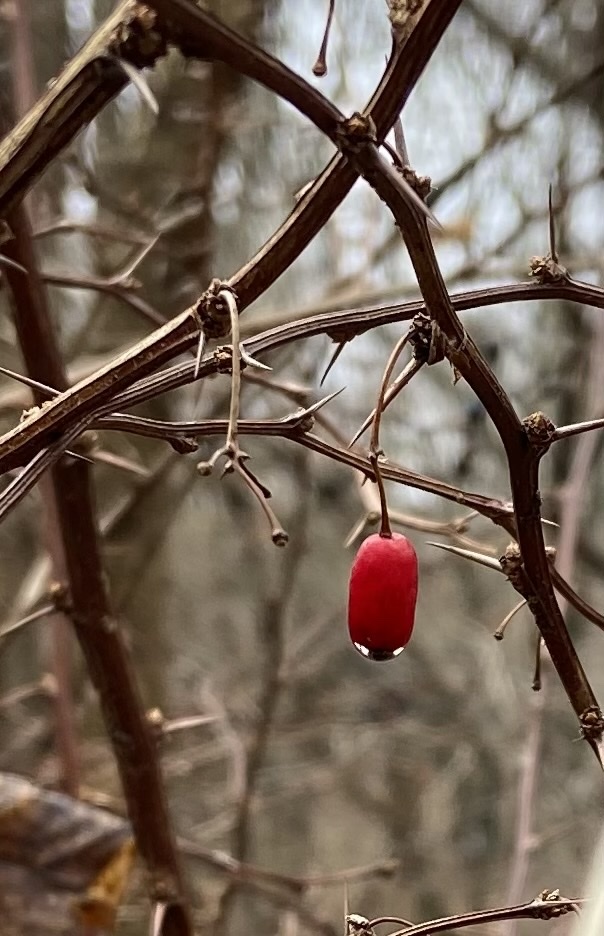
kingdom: Plantae
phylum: Tracheophyta
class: Magnoliopsida
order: Ranunculales
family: Berberidaceae
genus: Berberis
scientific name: Berberis thunbergii
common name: Japanese barberry
